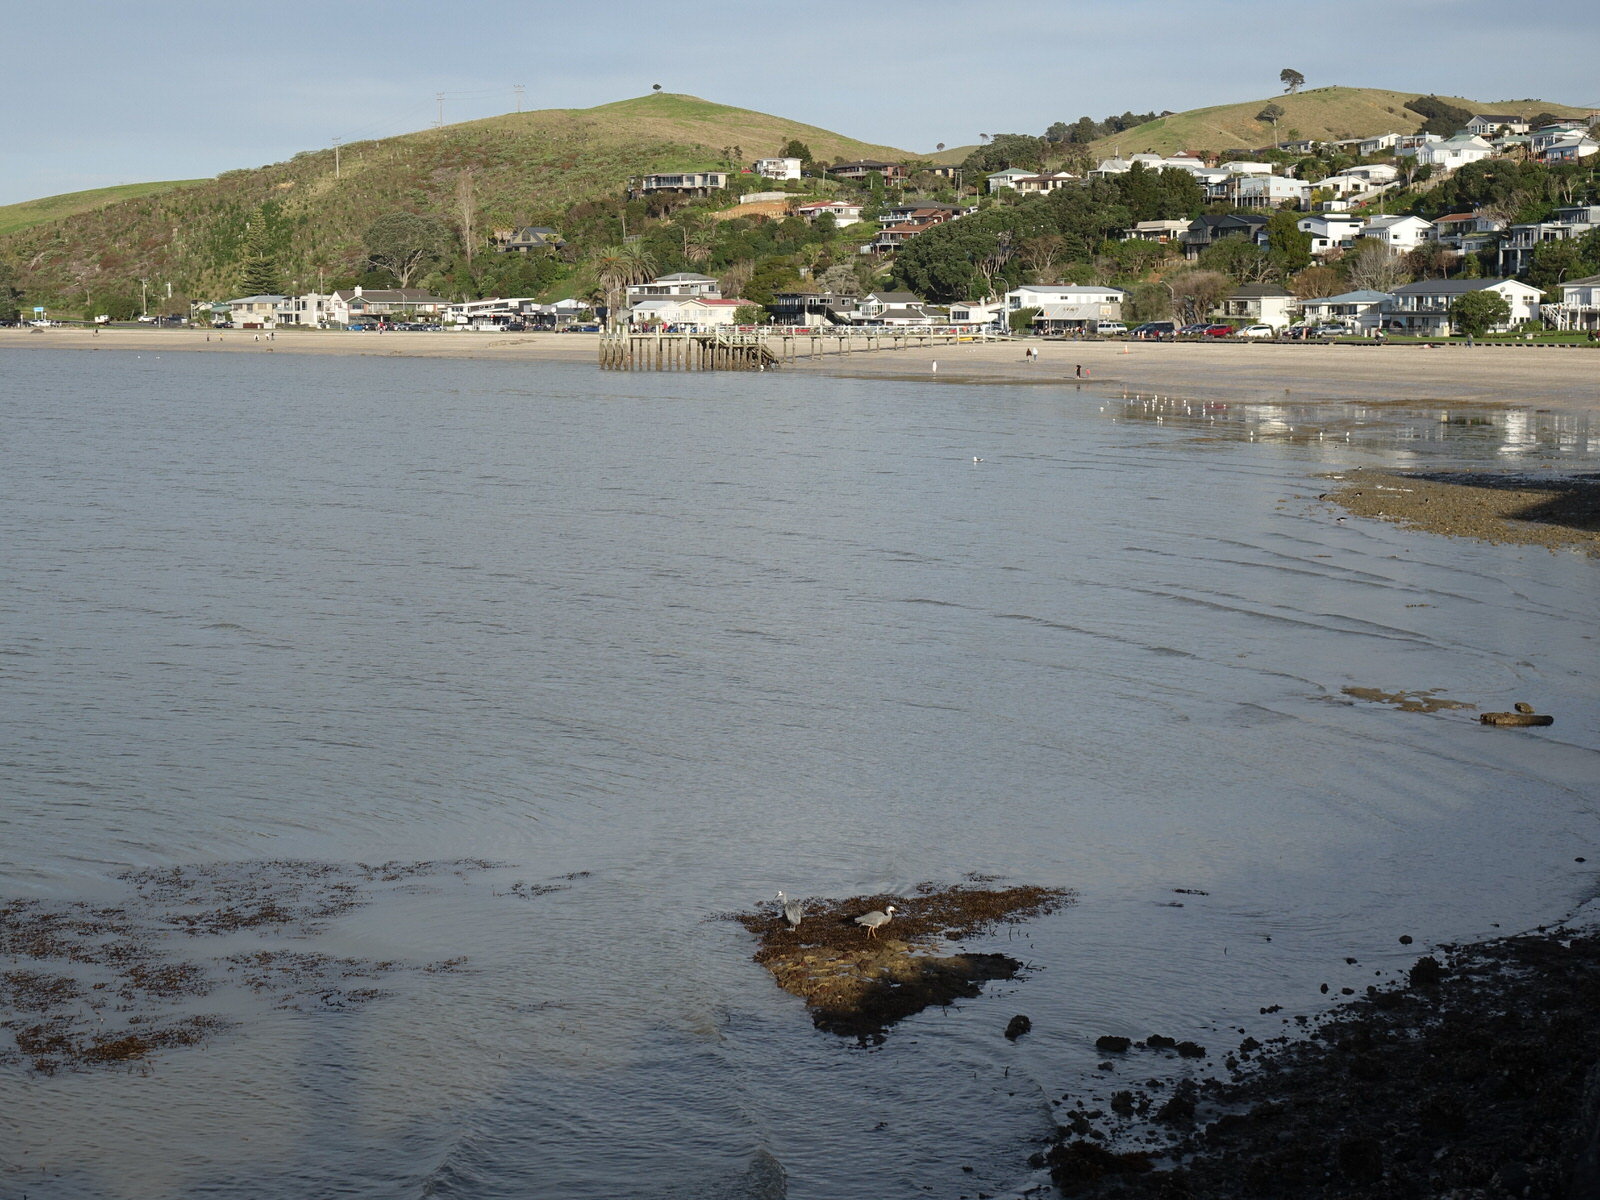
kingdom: Animalia
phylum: Chordata
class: Aves
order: Pelecaniformes
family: Ardeidae
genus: Egretta
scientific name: Egretta novaehollandiae
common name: White-faced heron
